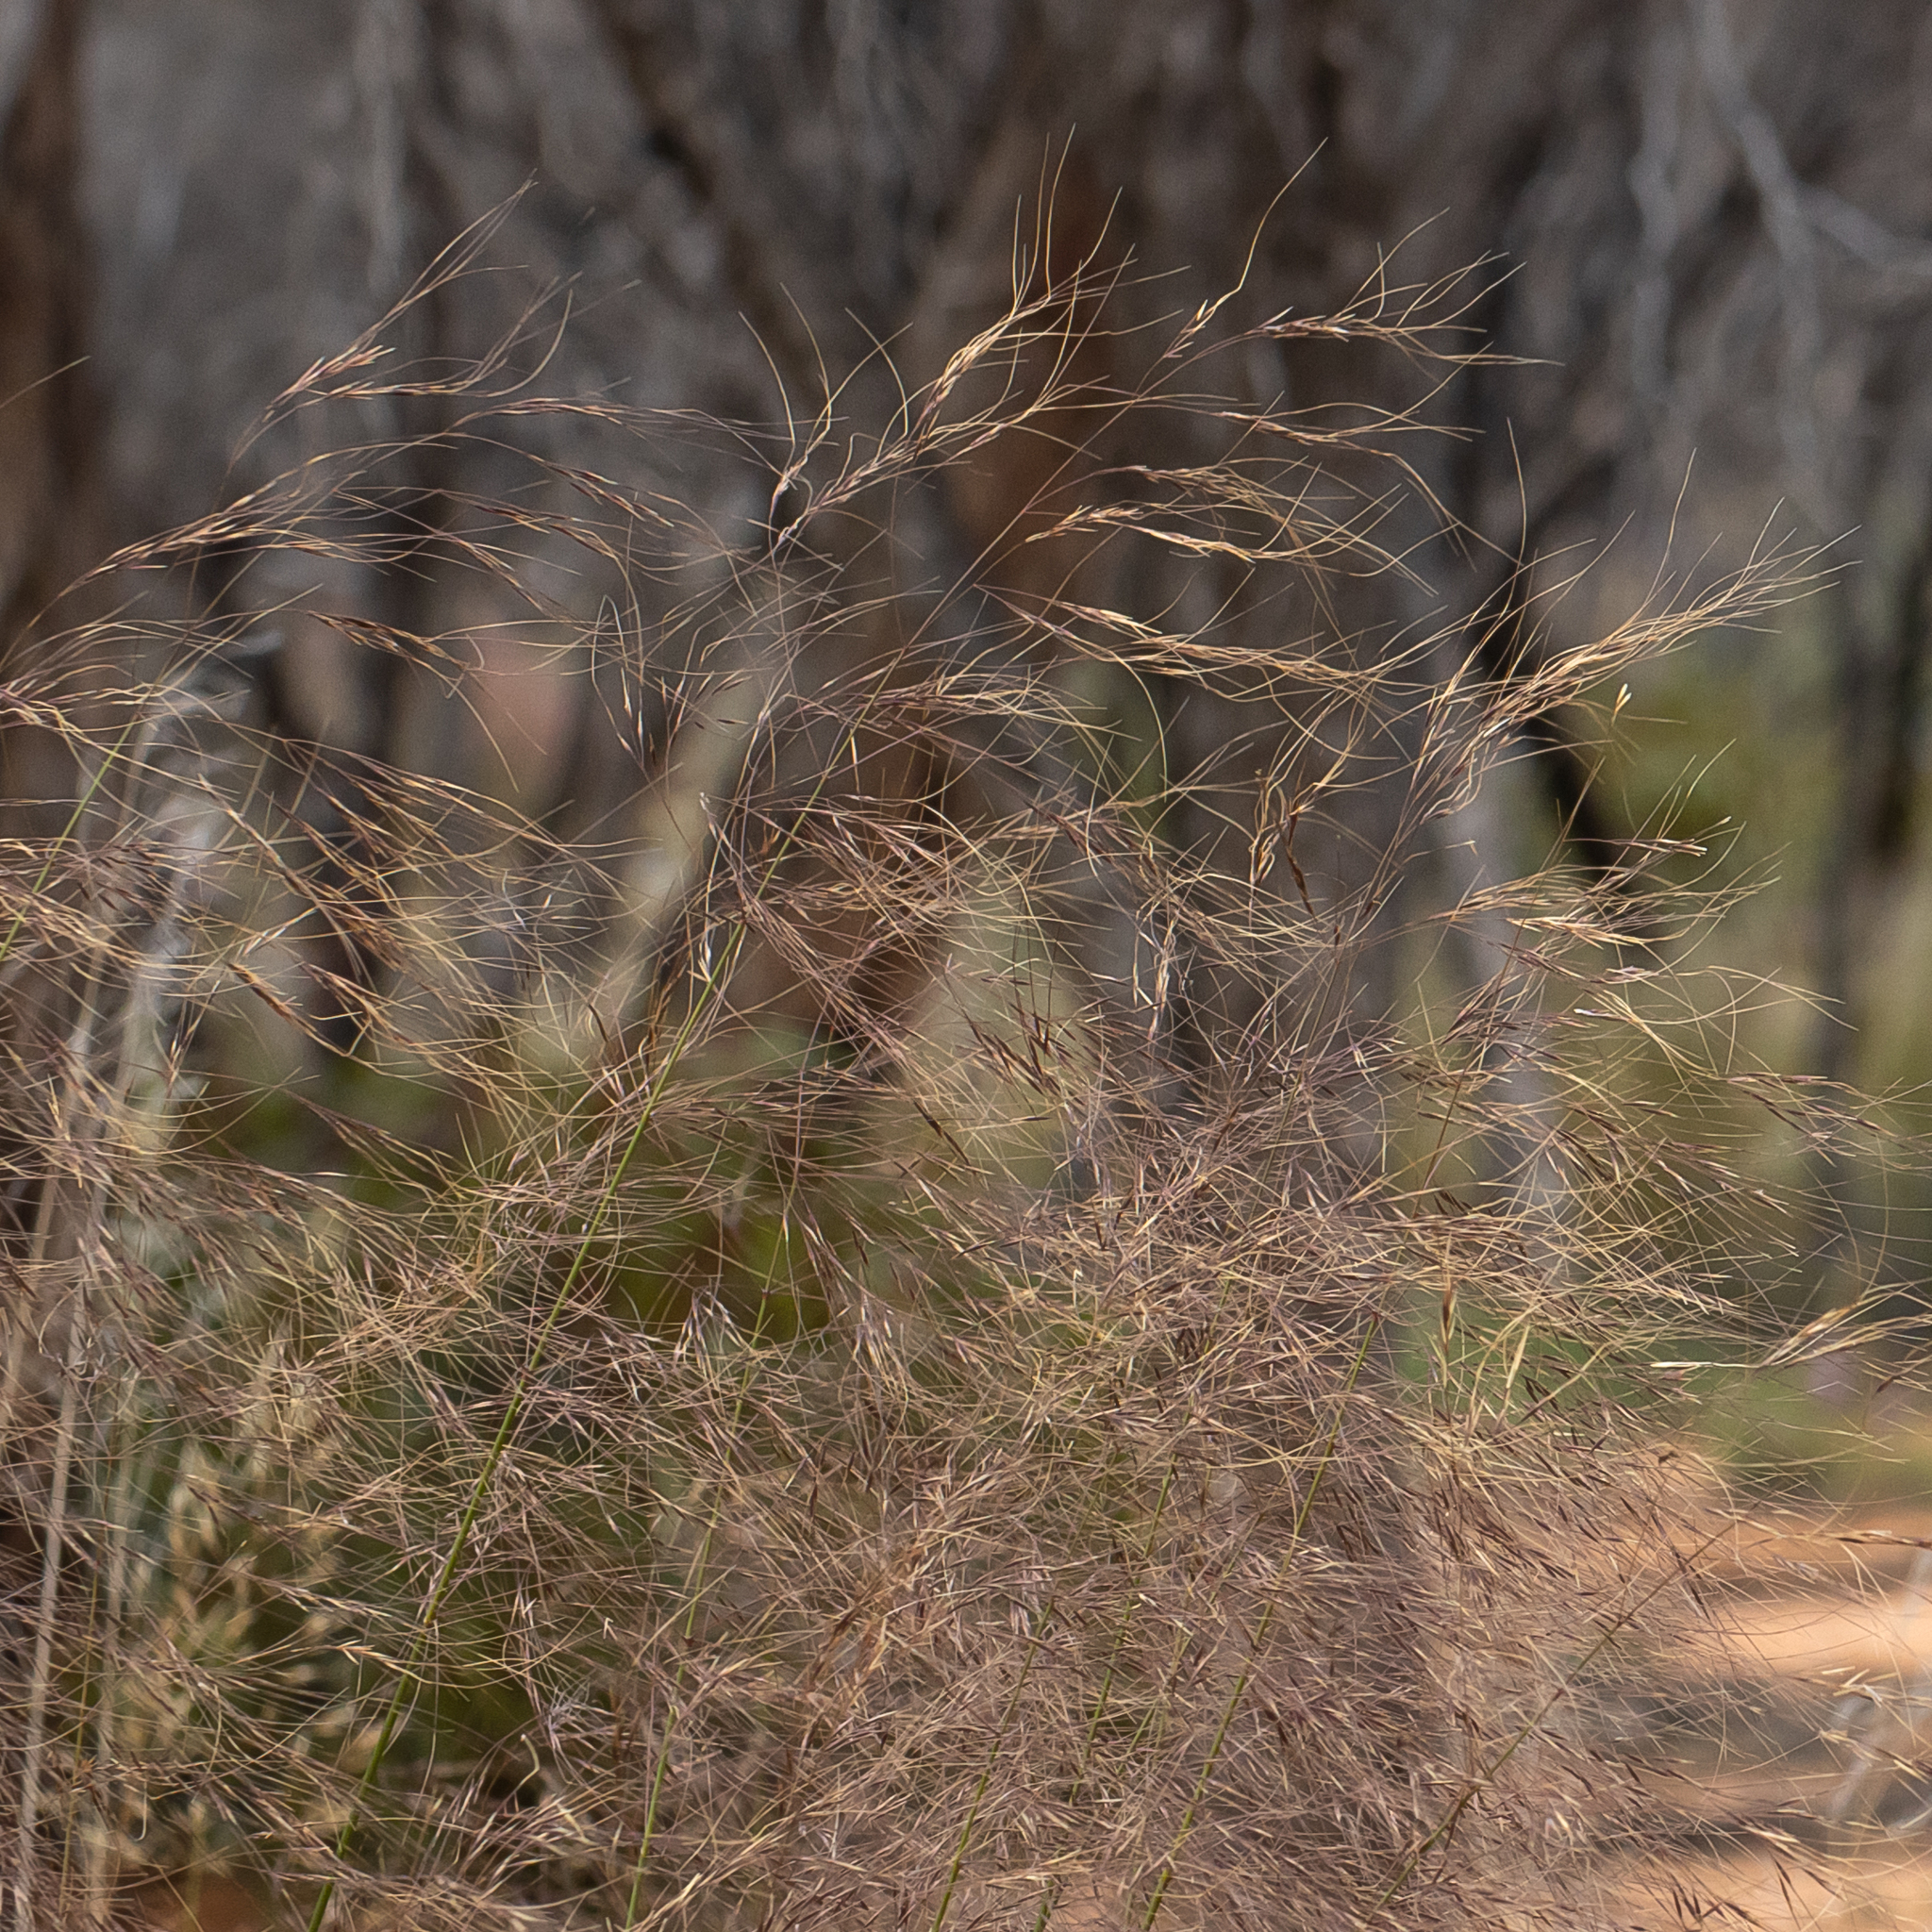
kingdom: Plantae
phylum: Tracheophyta
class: Liliopsida
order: Poales
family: Poaceae
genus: Austrostipa
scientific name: Austrostipa acrociliata
